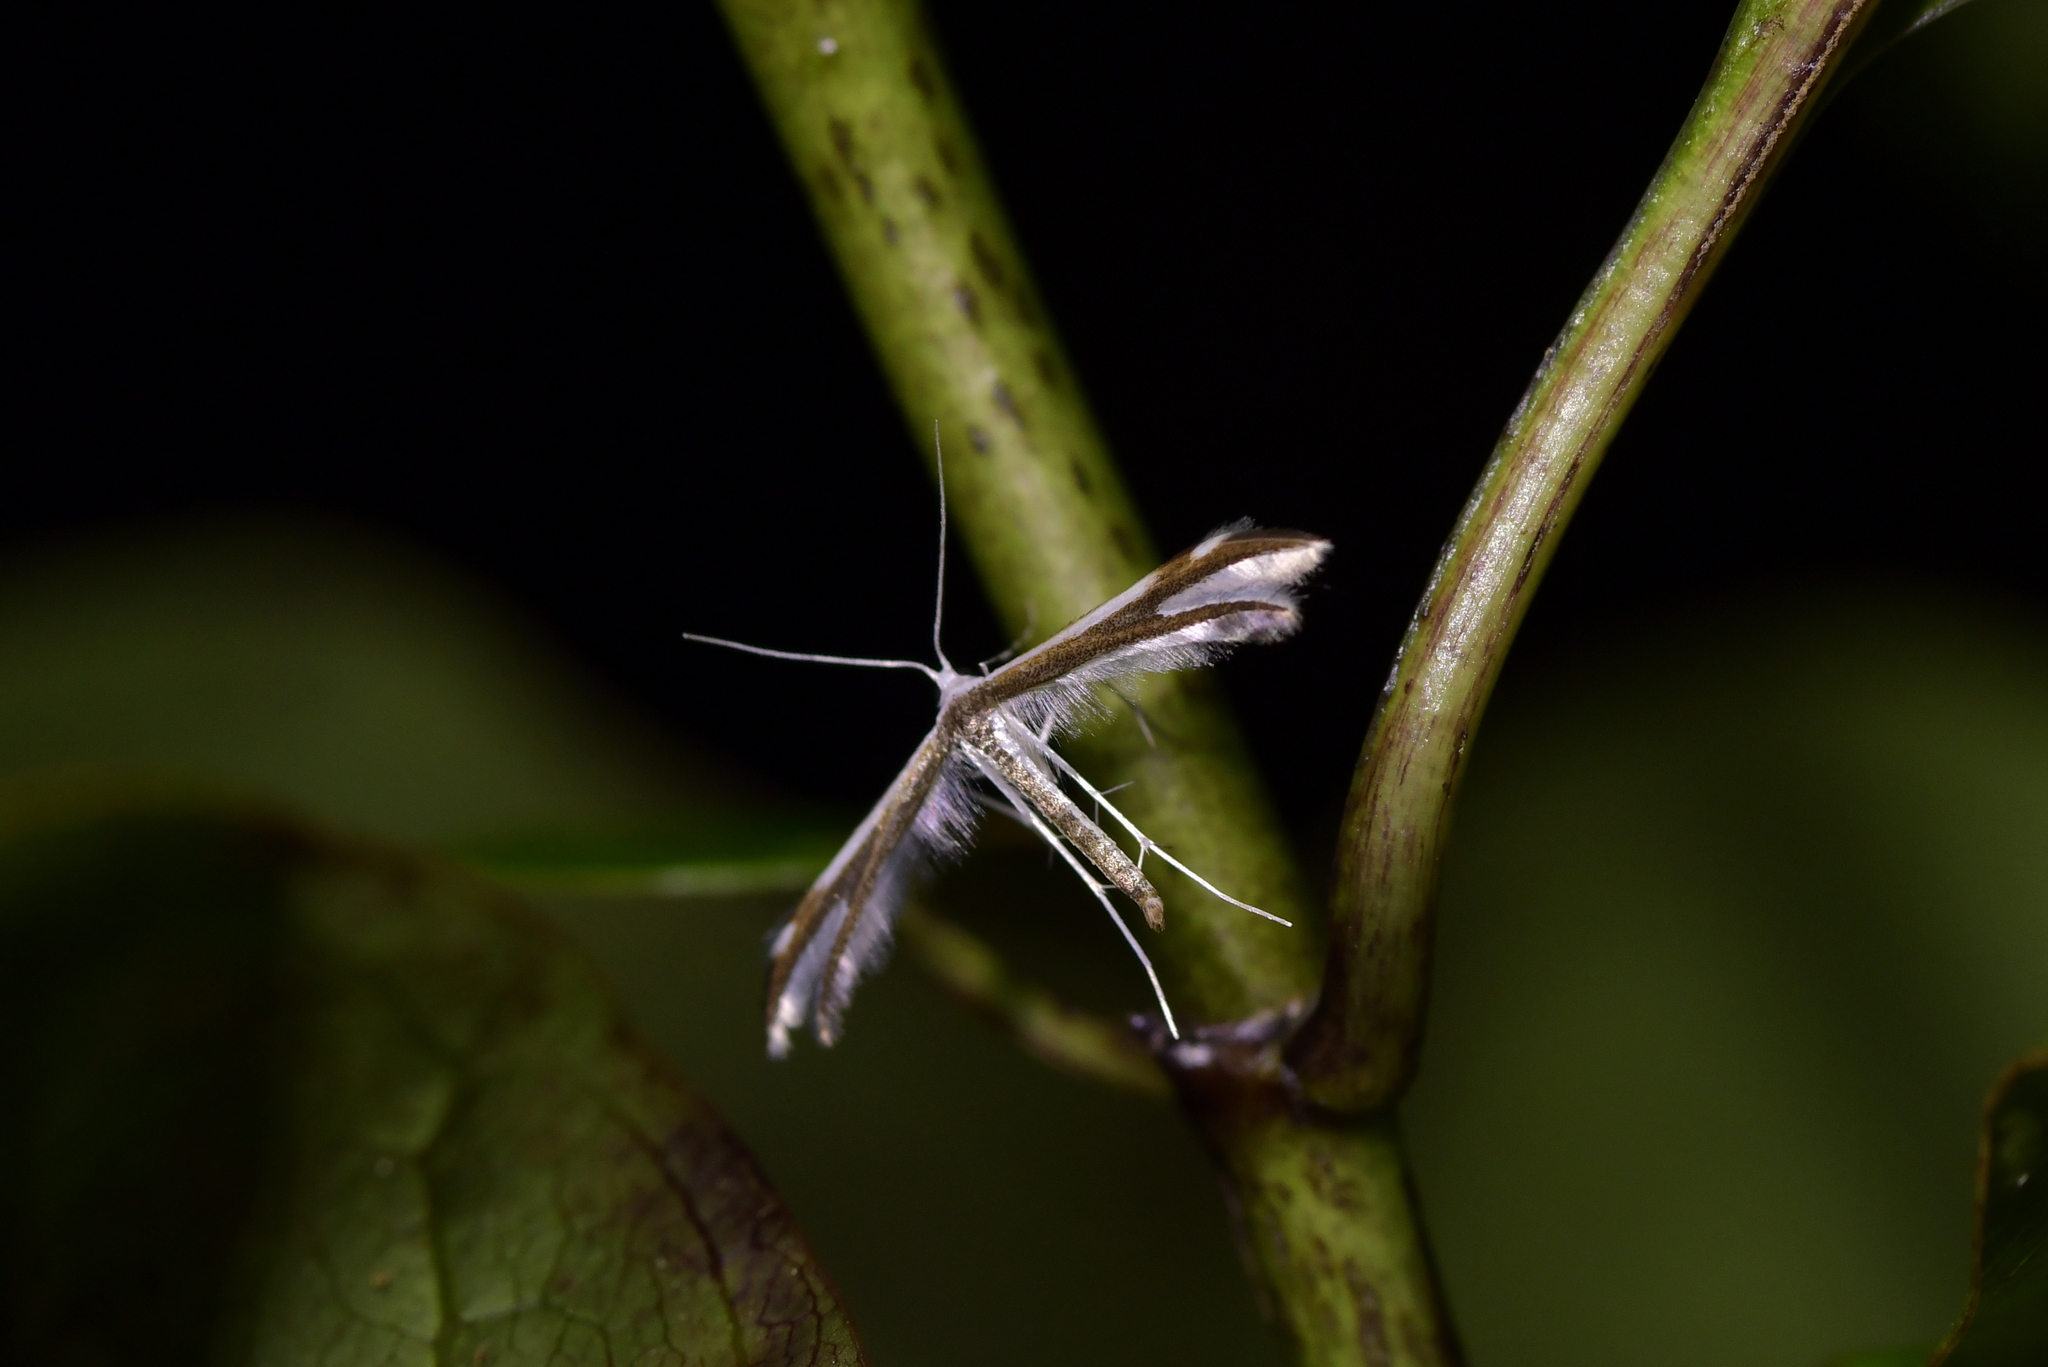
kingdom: Animalia
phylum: Arthropoda
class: Insecta
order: Lepidoptera
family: Pterophoridae
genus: Pterophorus
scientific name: Pterophorus furcatalis
